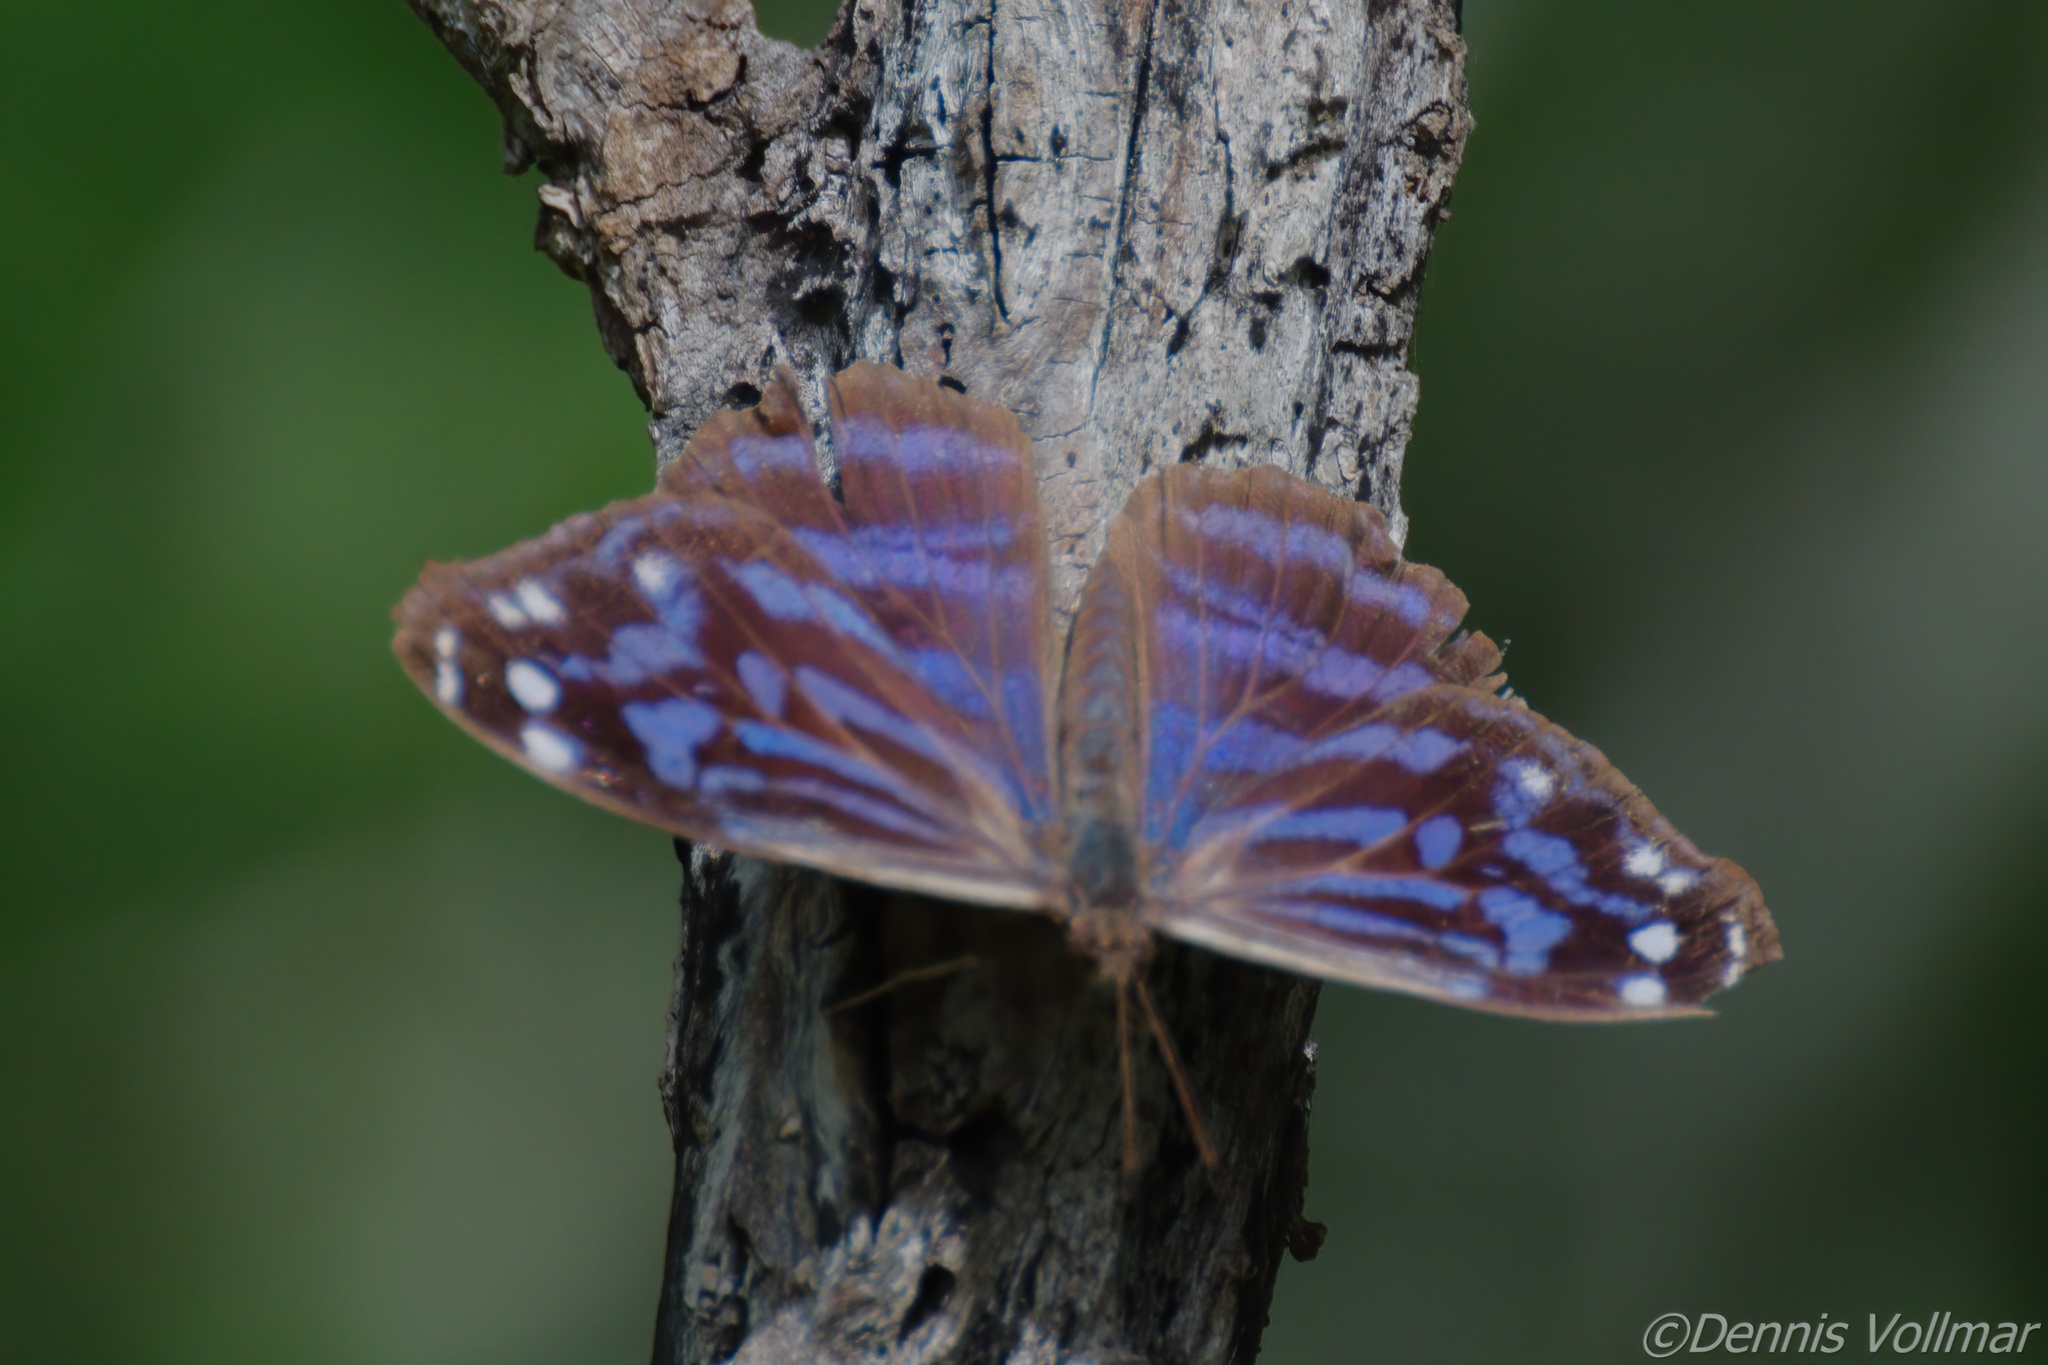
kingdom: Animalia
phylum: Arthropoda
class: Insecta
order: Lepidoptera
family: Nymphalidae
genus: Myscelia
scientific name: Myscelia ethusa
